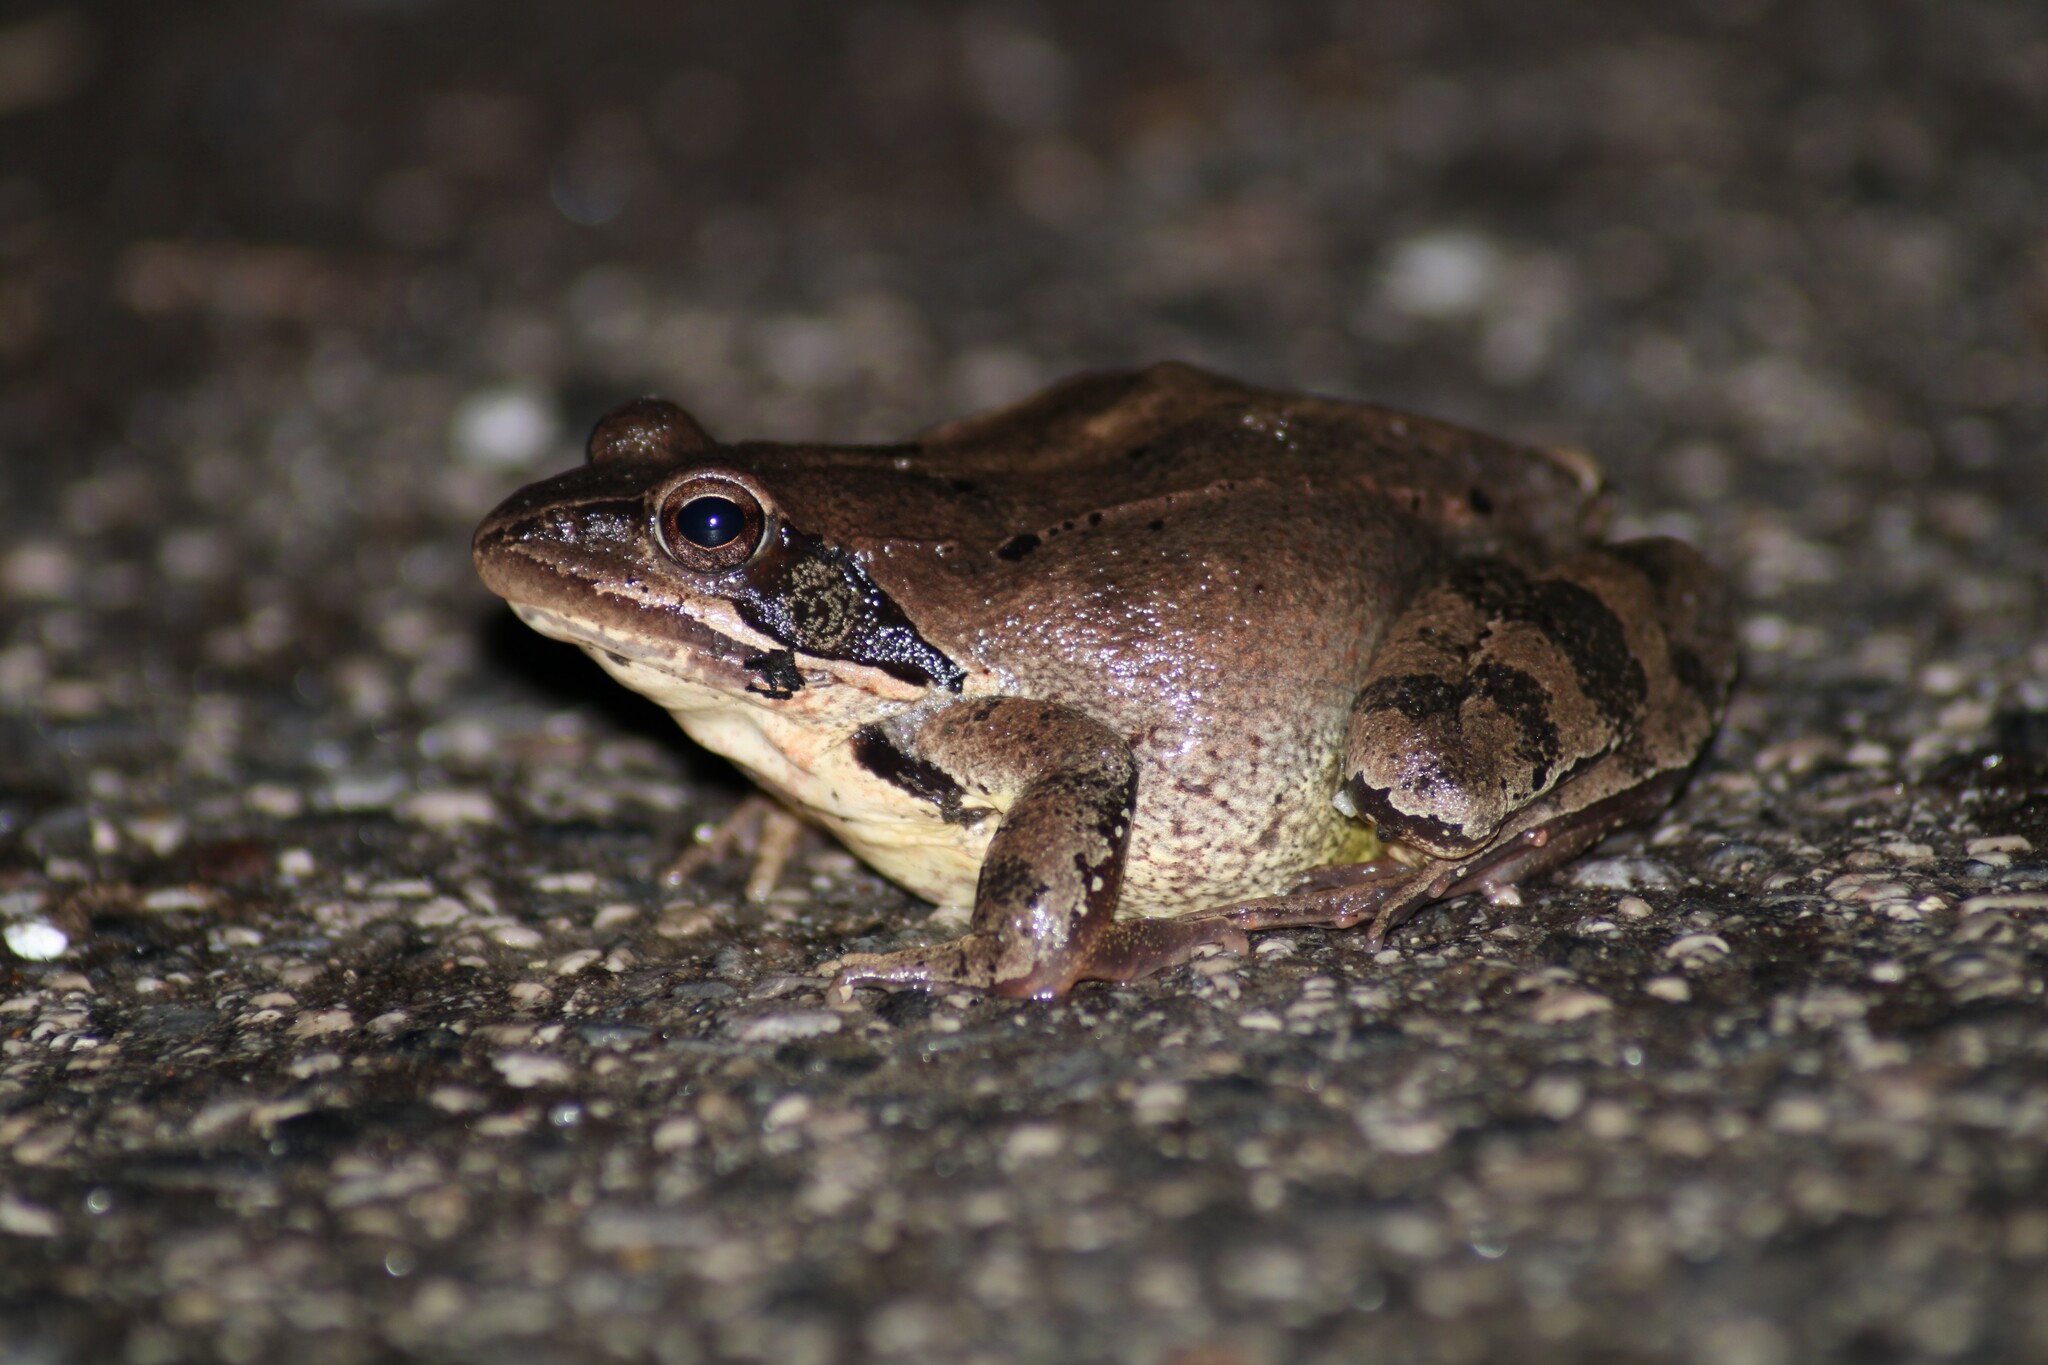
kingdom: Animalia
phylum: Chordata
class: Amphibia
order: Anura
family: Ranidae
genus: Rana
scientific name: Rana dalmatina
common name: Agile frog
